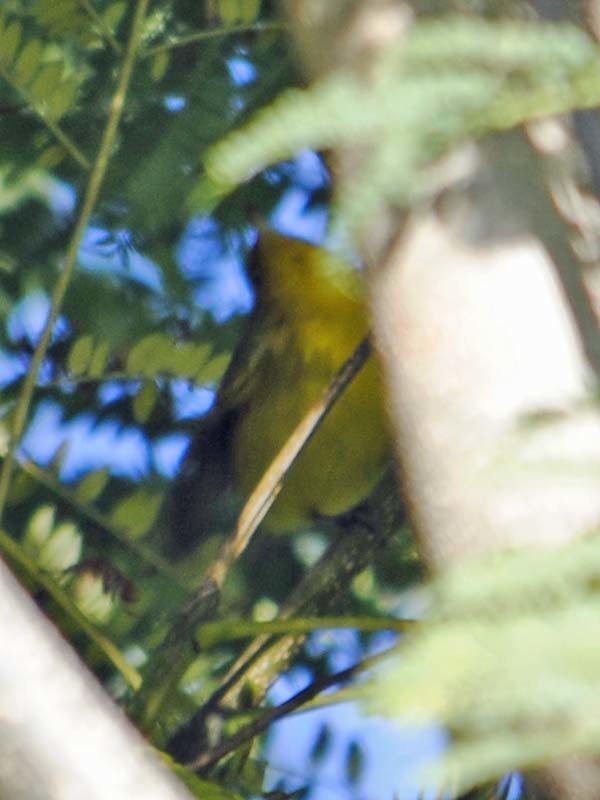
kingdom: Animalia
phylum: Chordata
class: Aves
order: Passeriformes
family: Parulidae
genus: Cardellina
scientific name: Cardellina pusilla
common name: Wilson's warbler
